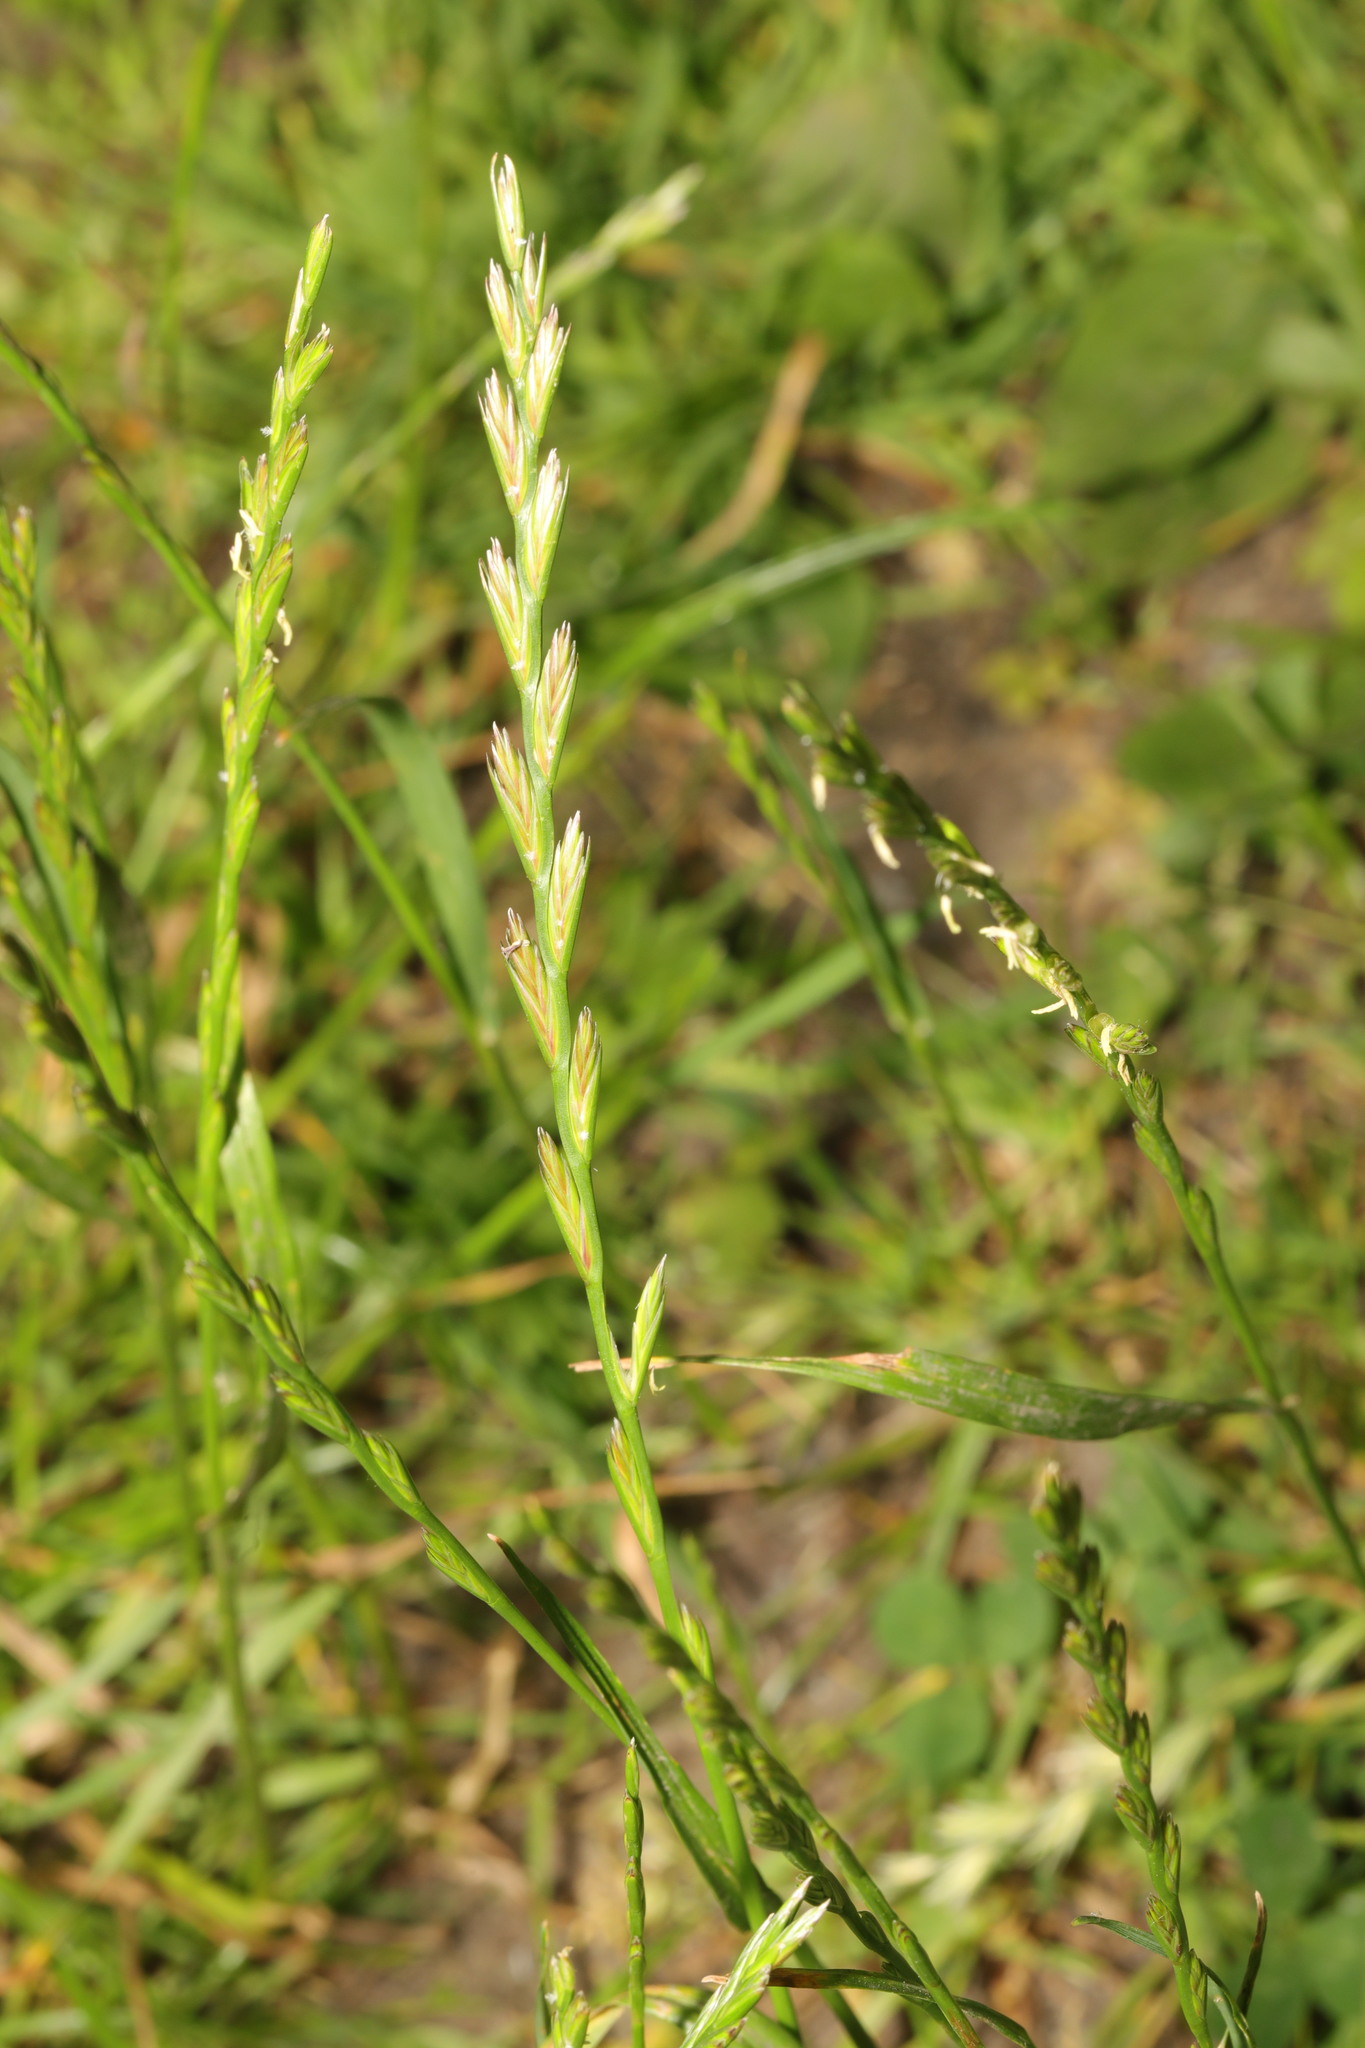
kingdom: Plantae
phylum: Tracheophyta
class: Liliopsida
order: Poales
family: Poaceae
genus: Lolium
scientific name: Lolium perenne
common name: Perennial ryegrass
